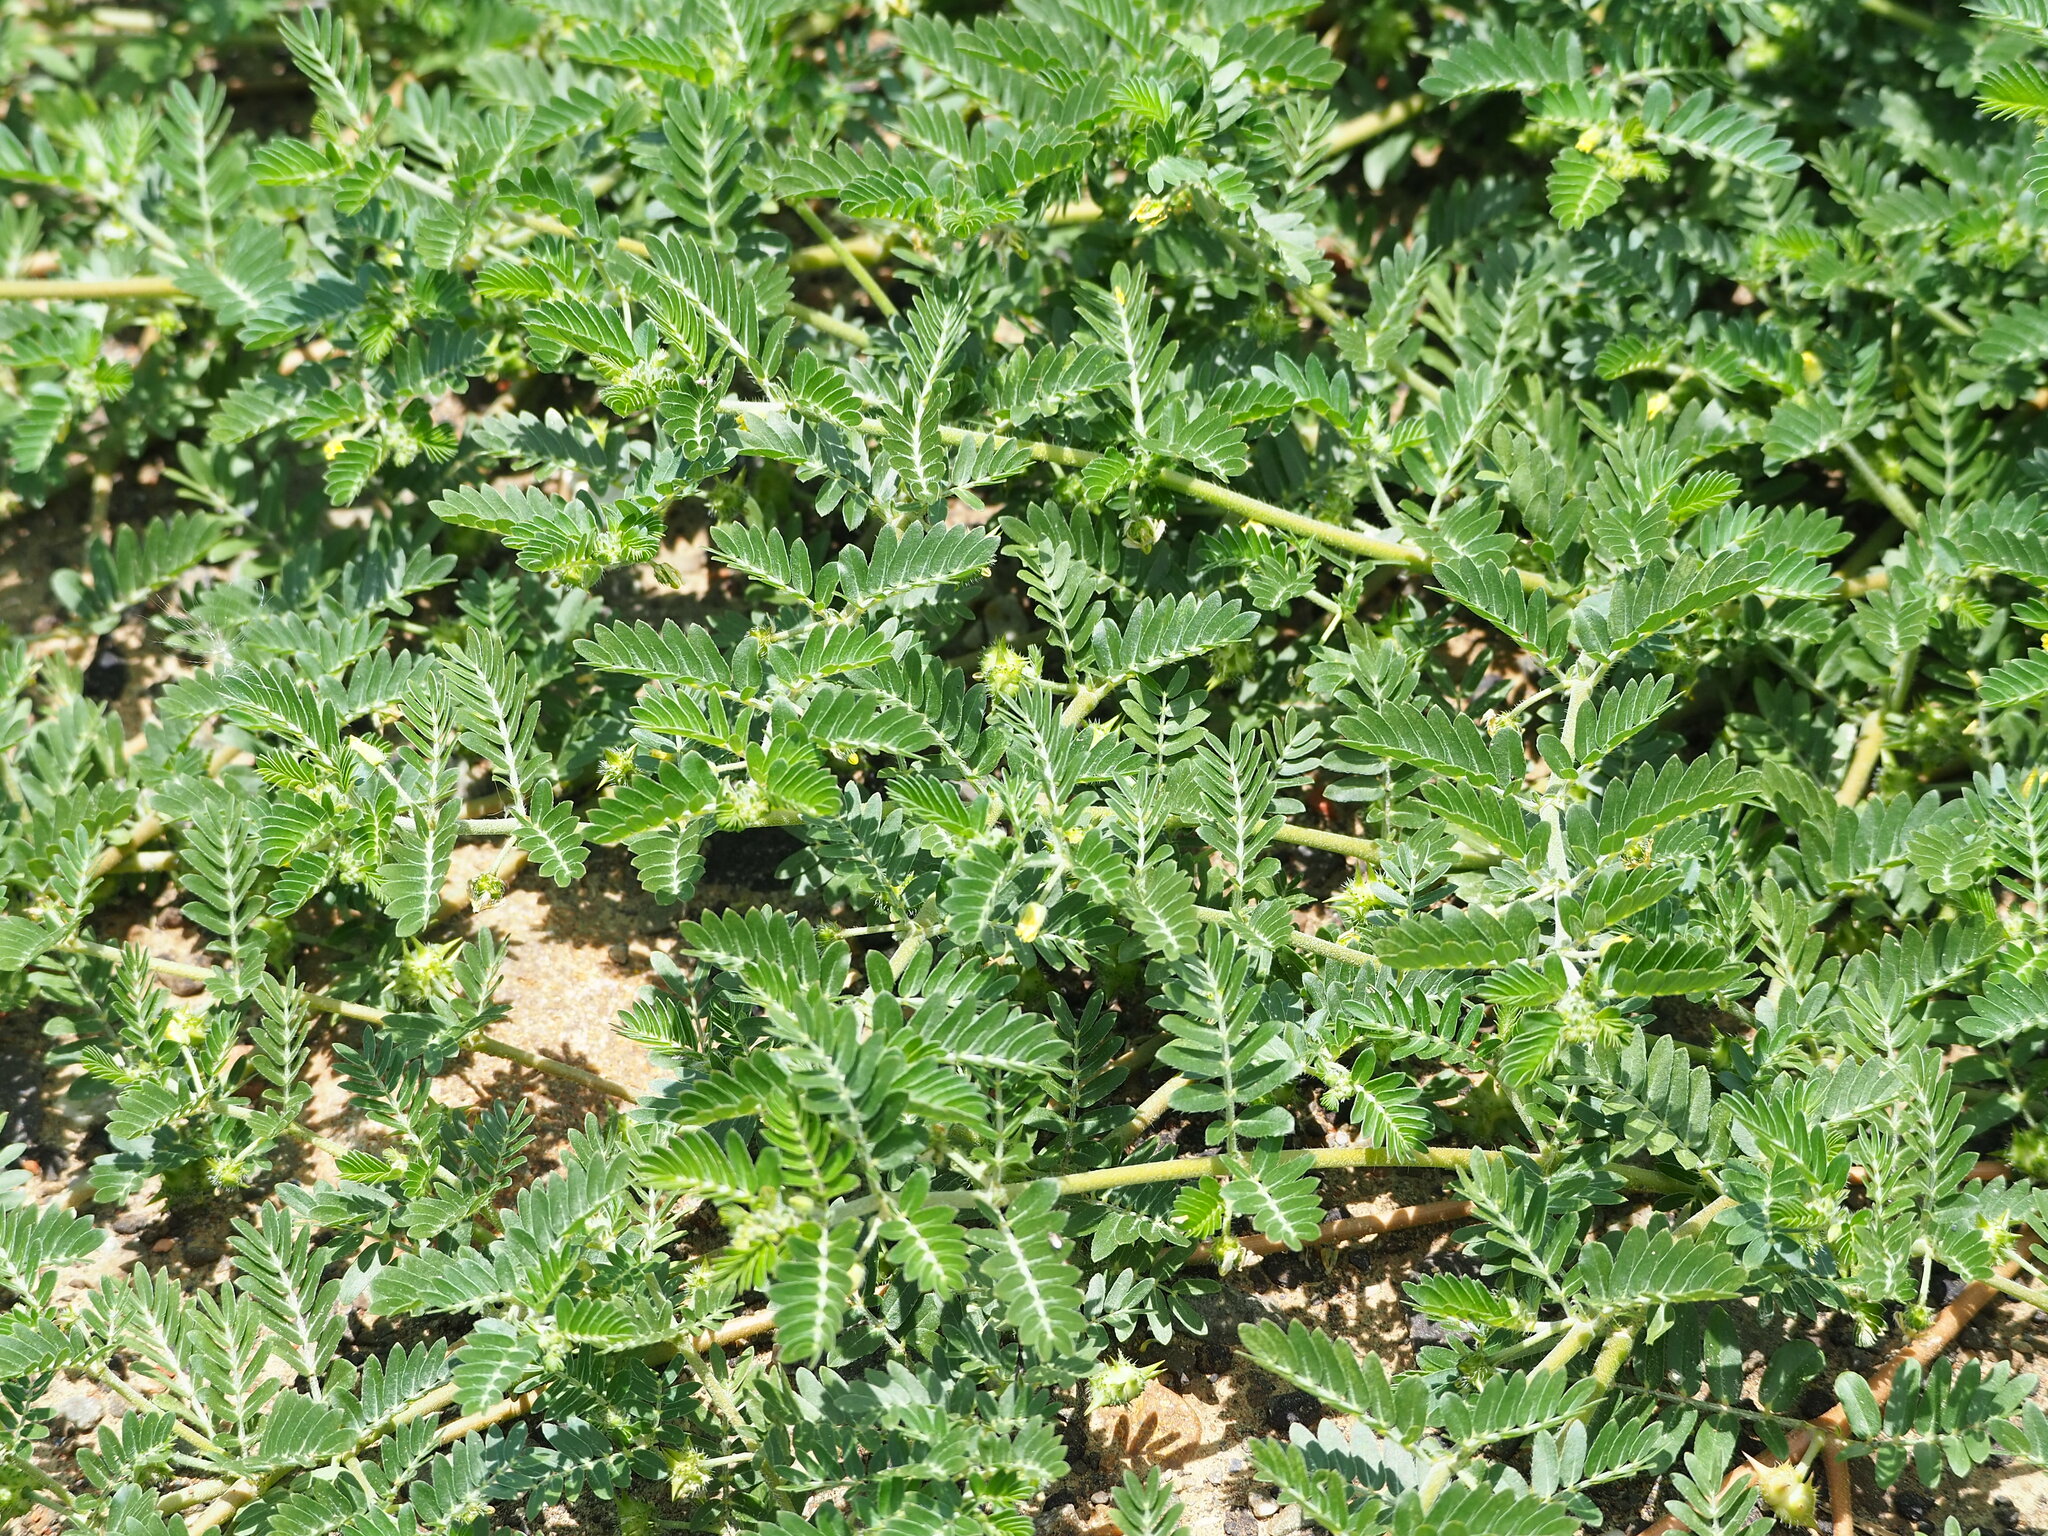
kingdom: Plantae
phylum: Tracheophyta
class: Magnoliopsida
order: Zygophyllales
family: Zygophyllaceae
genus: Tribulus
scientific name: Tribulus cistoides
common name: Jamaican feverplant
